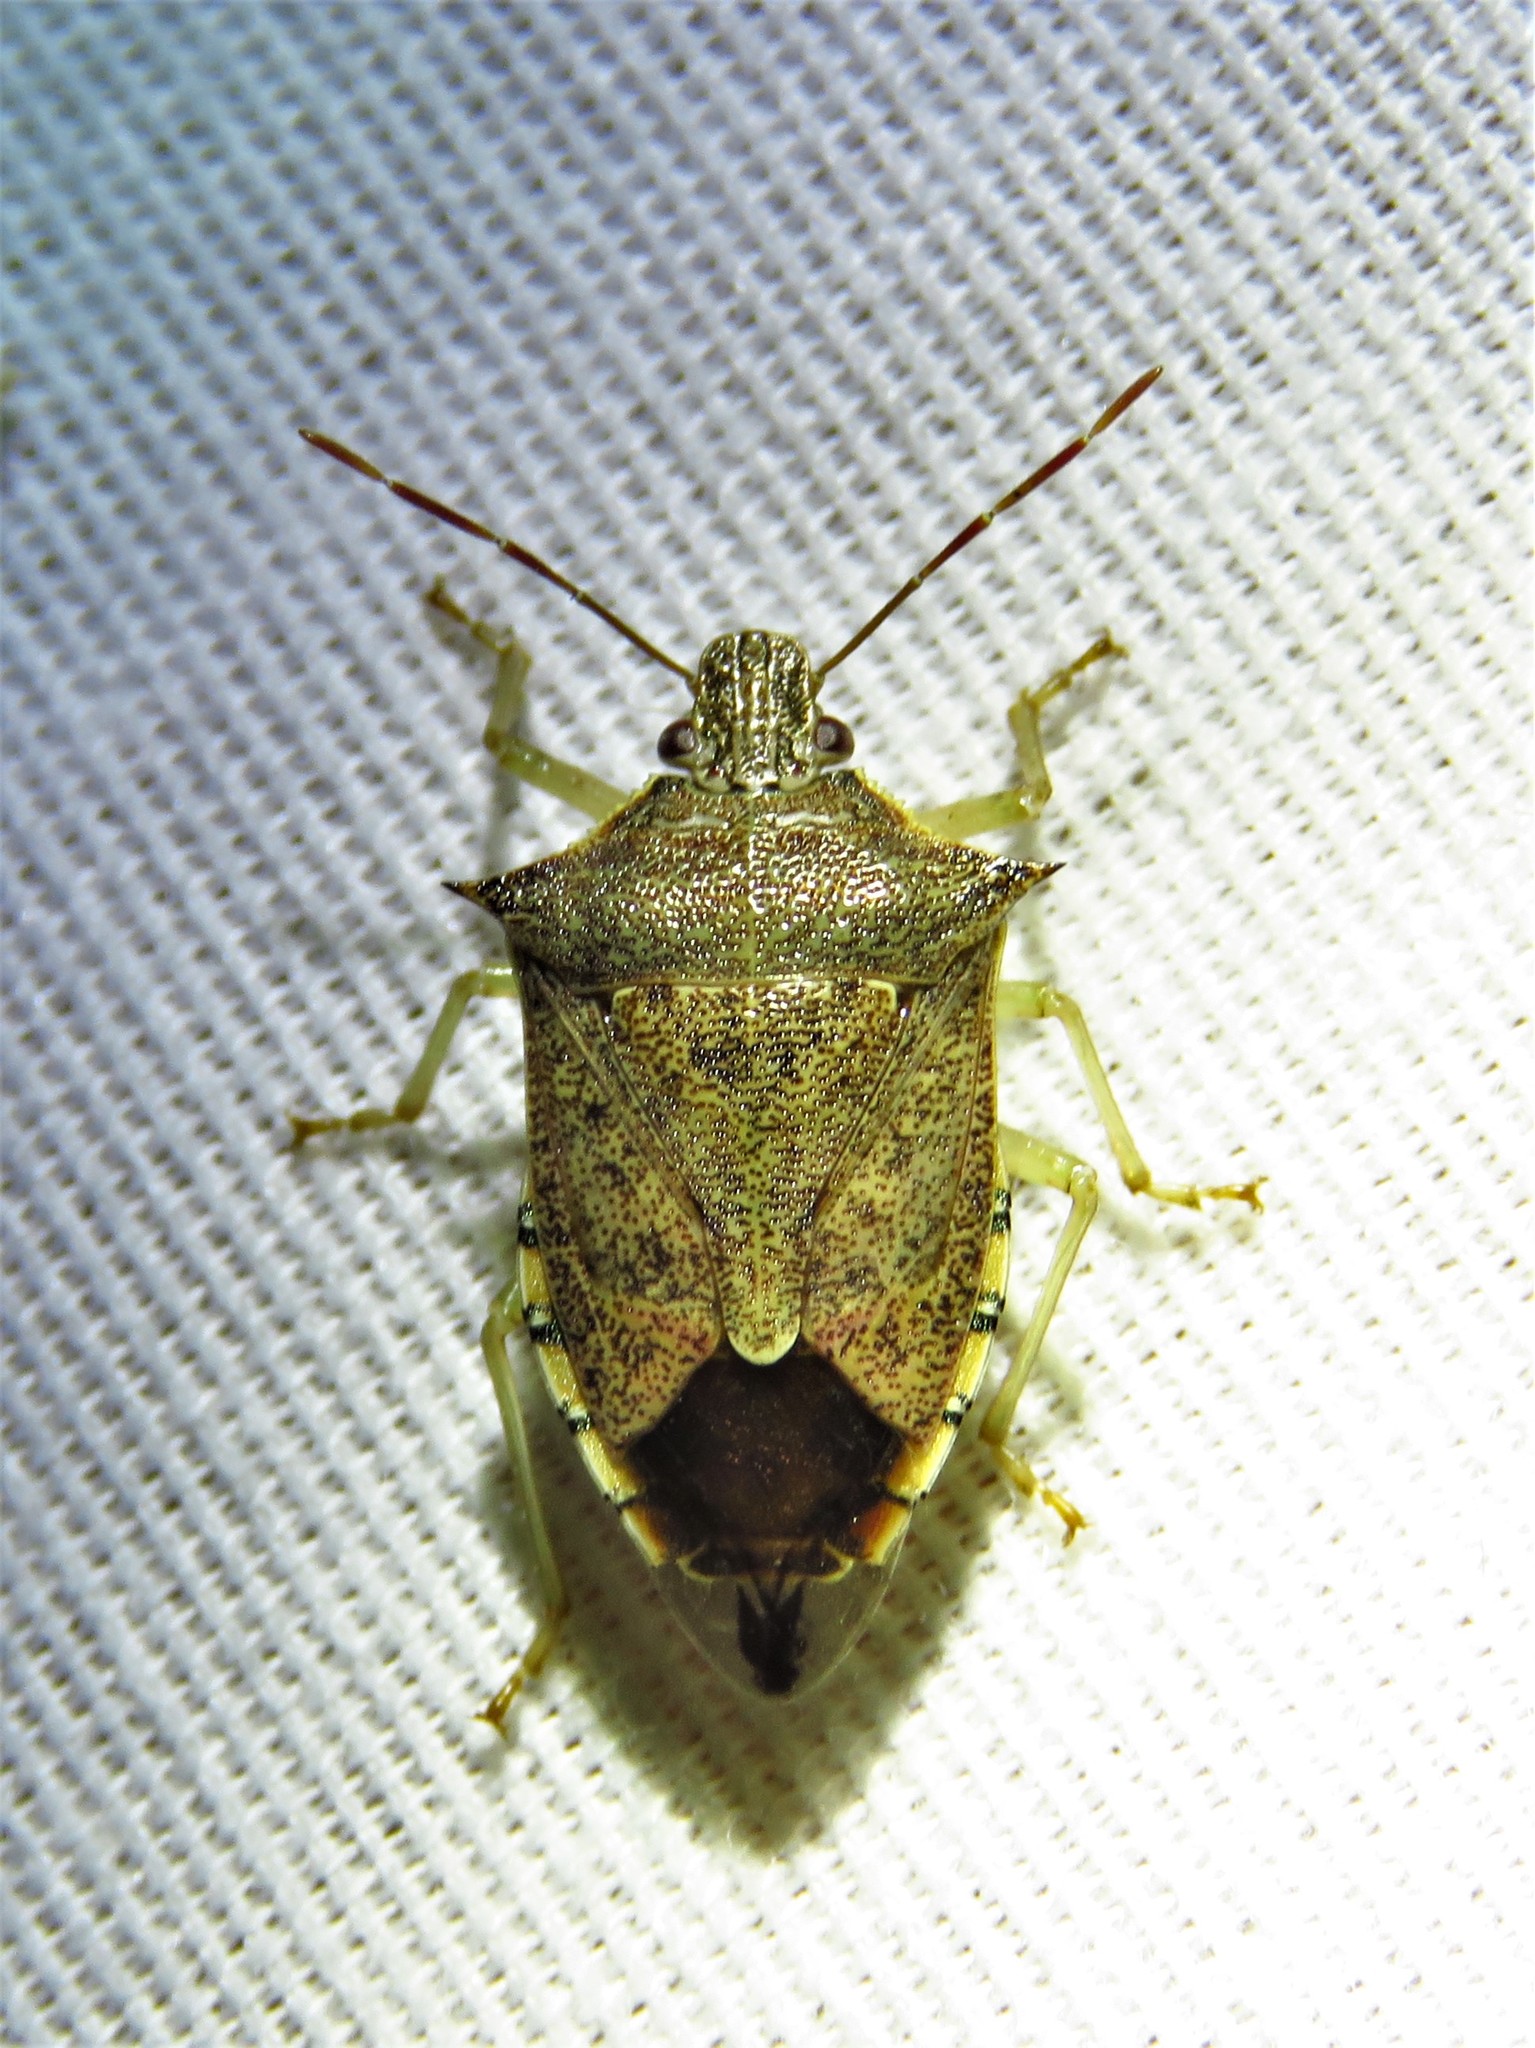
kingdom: Animalia
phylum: Arthropoda
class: Insecta
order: Hemiptera
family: Pentatomidae
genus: Podisus
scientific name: Podisus maculiventris
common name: Spined soldier bug
